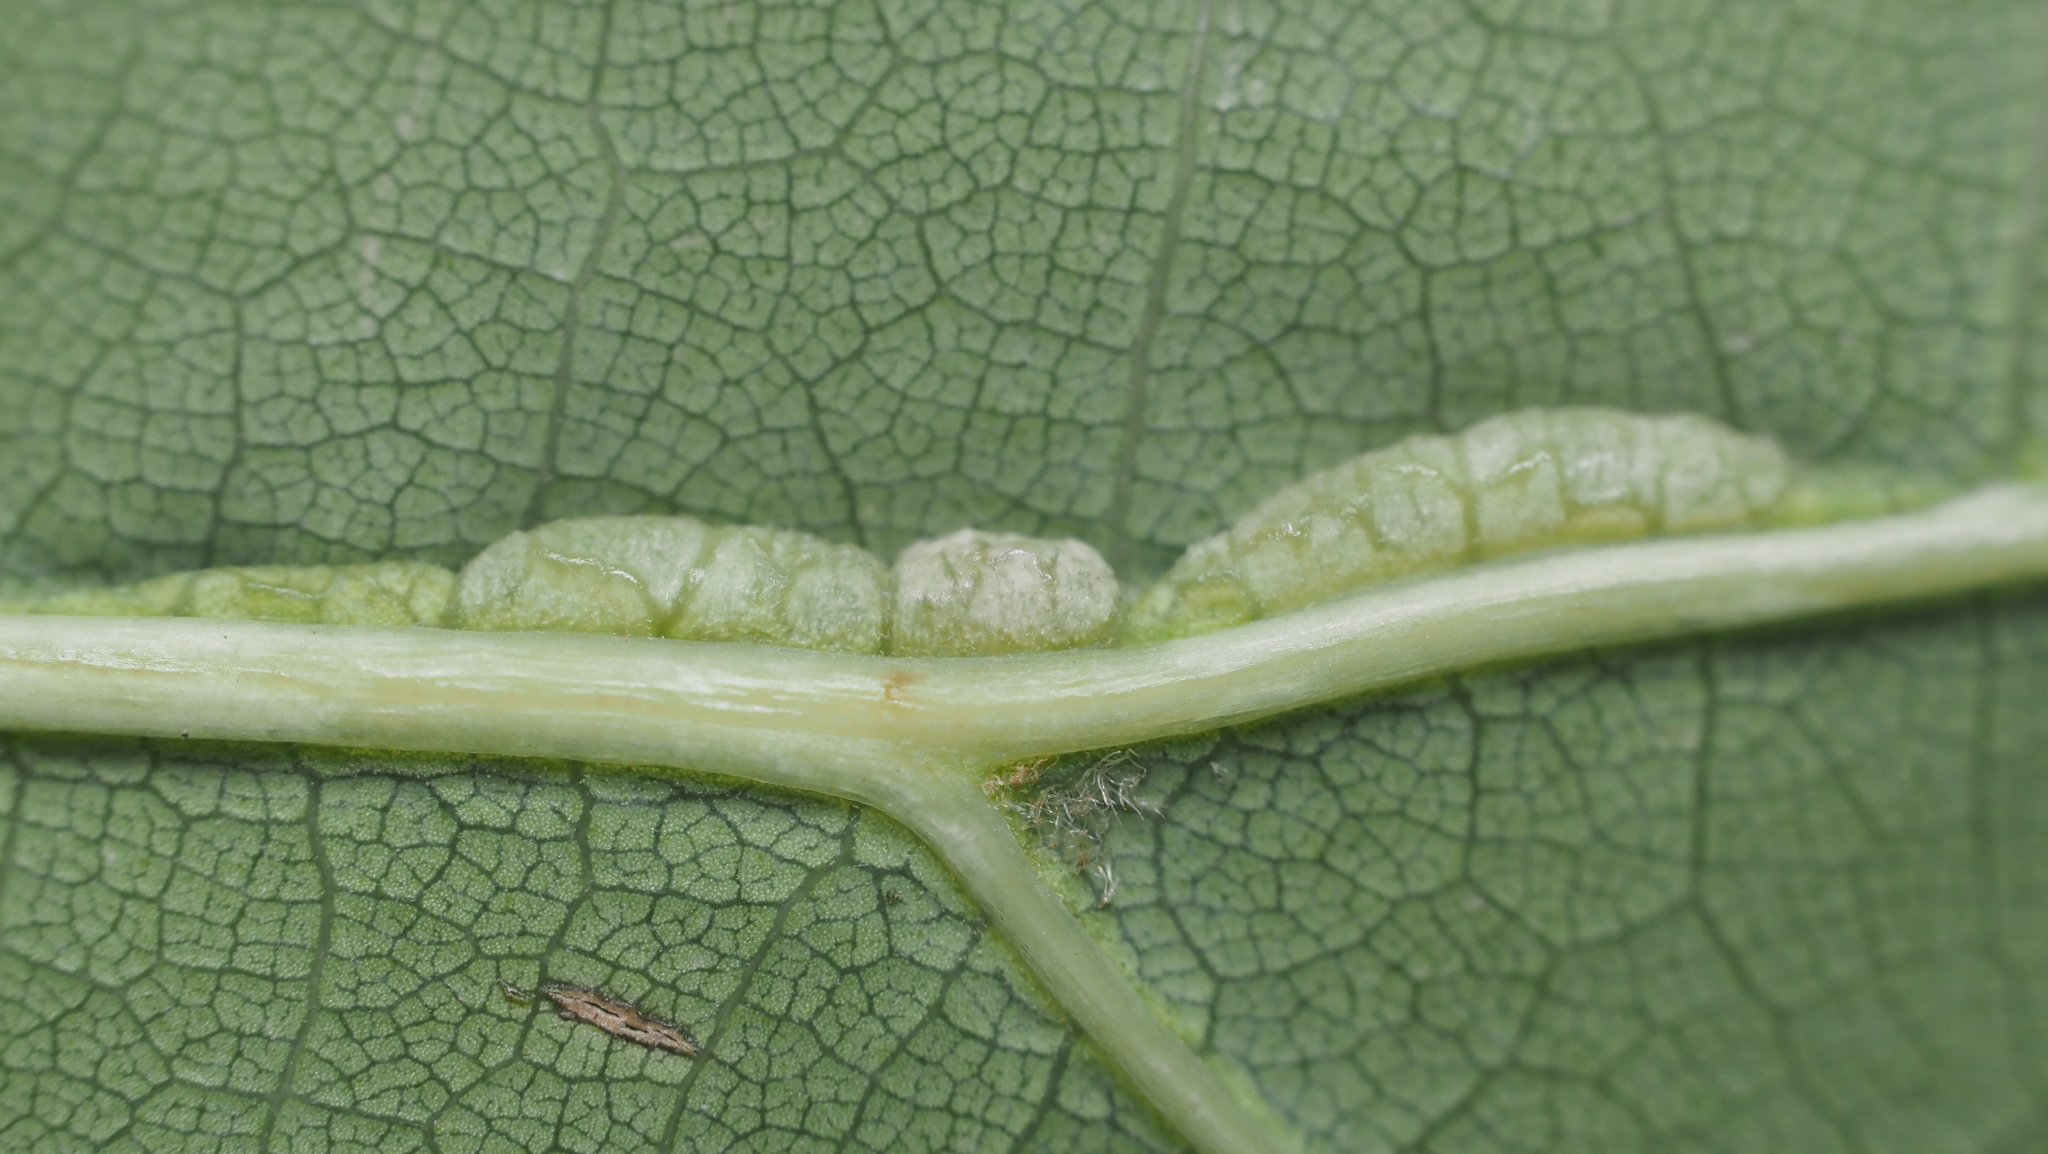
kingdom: Animalia
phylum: Arthropoda
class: Insecta
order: Diptera
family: Cecidomyiidae
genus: Macrodiplosis
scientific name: Macrodiplosis q-orucum
